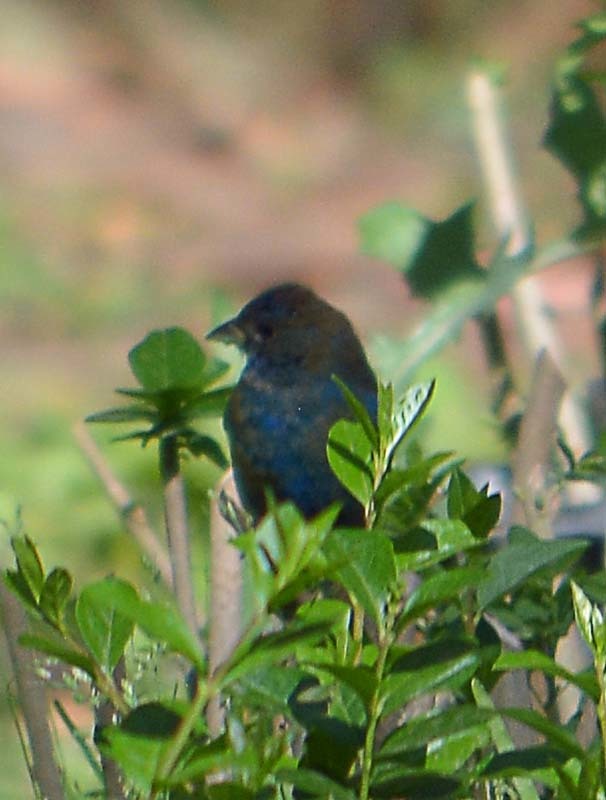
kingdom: Animalia
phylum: Chordata
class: Aves
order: Passeriformes
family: Cardinalidae
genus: Passerina
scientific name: Passerina cyanea
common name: Indigo bunting
